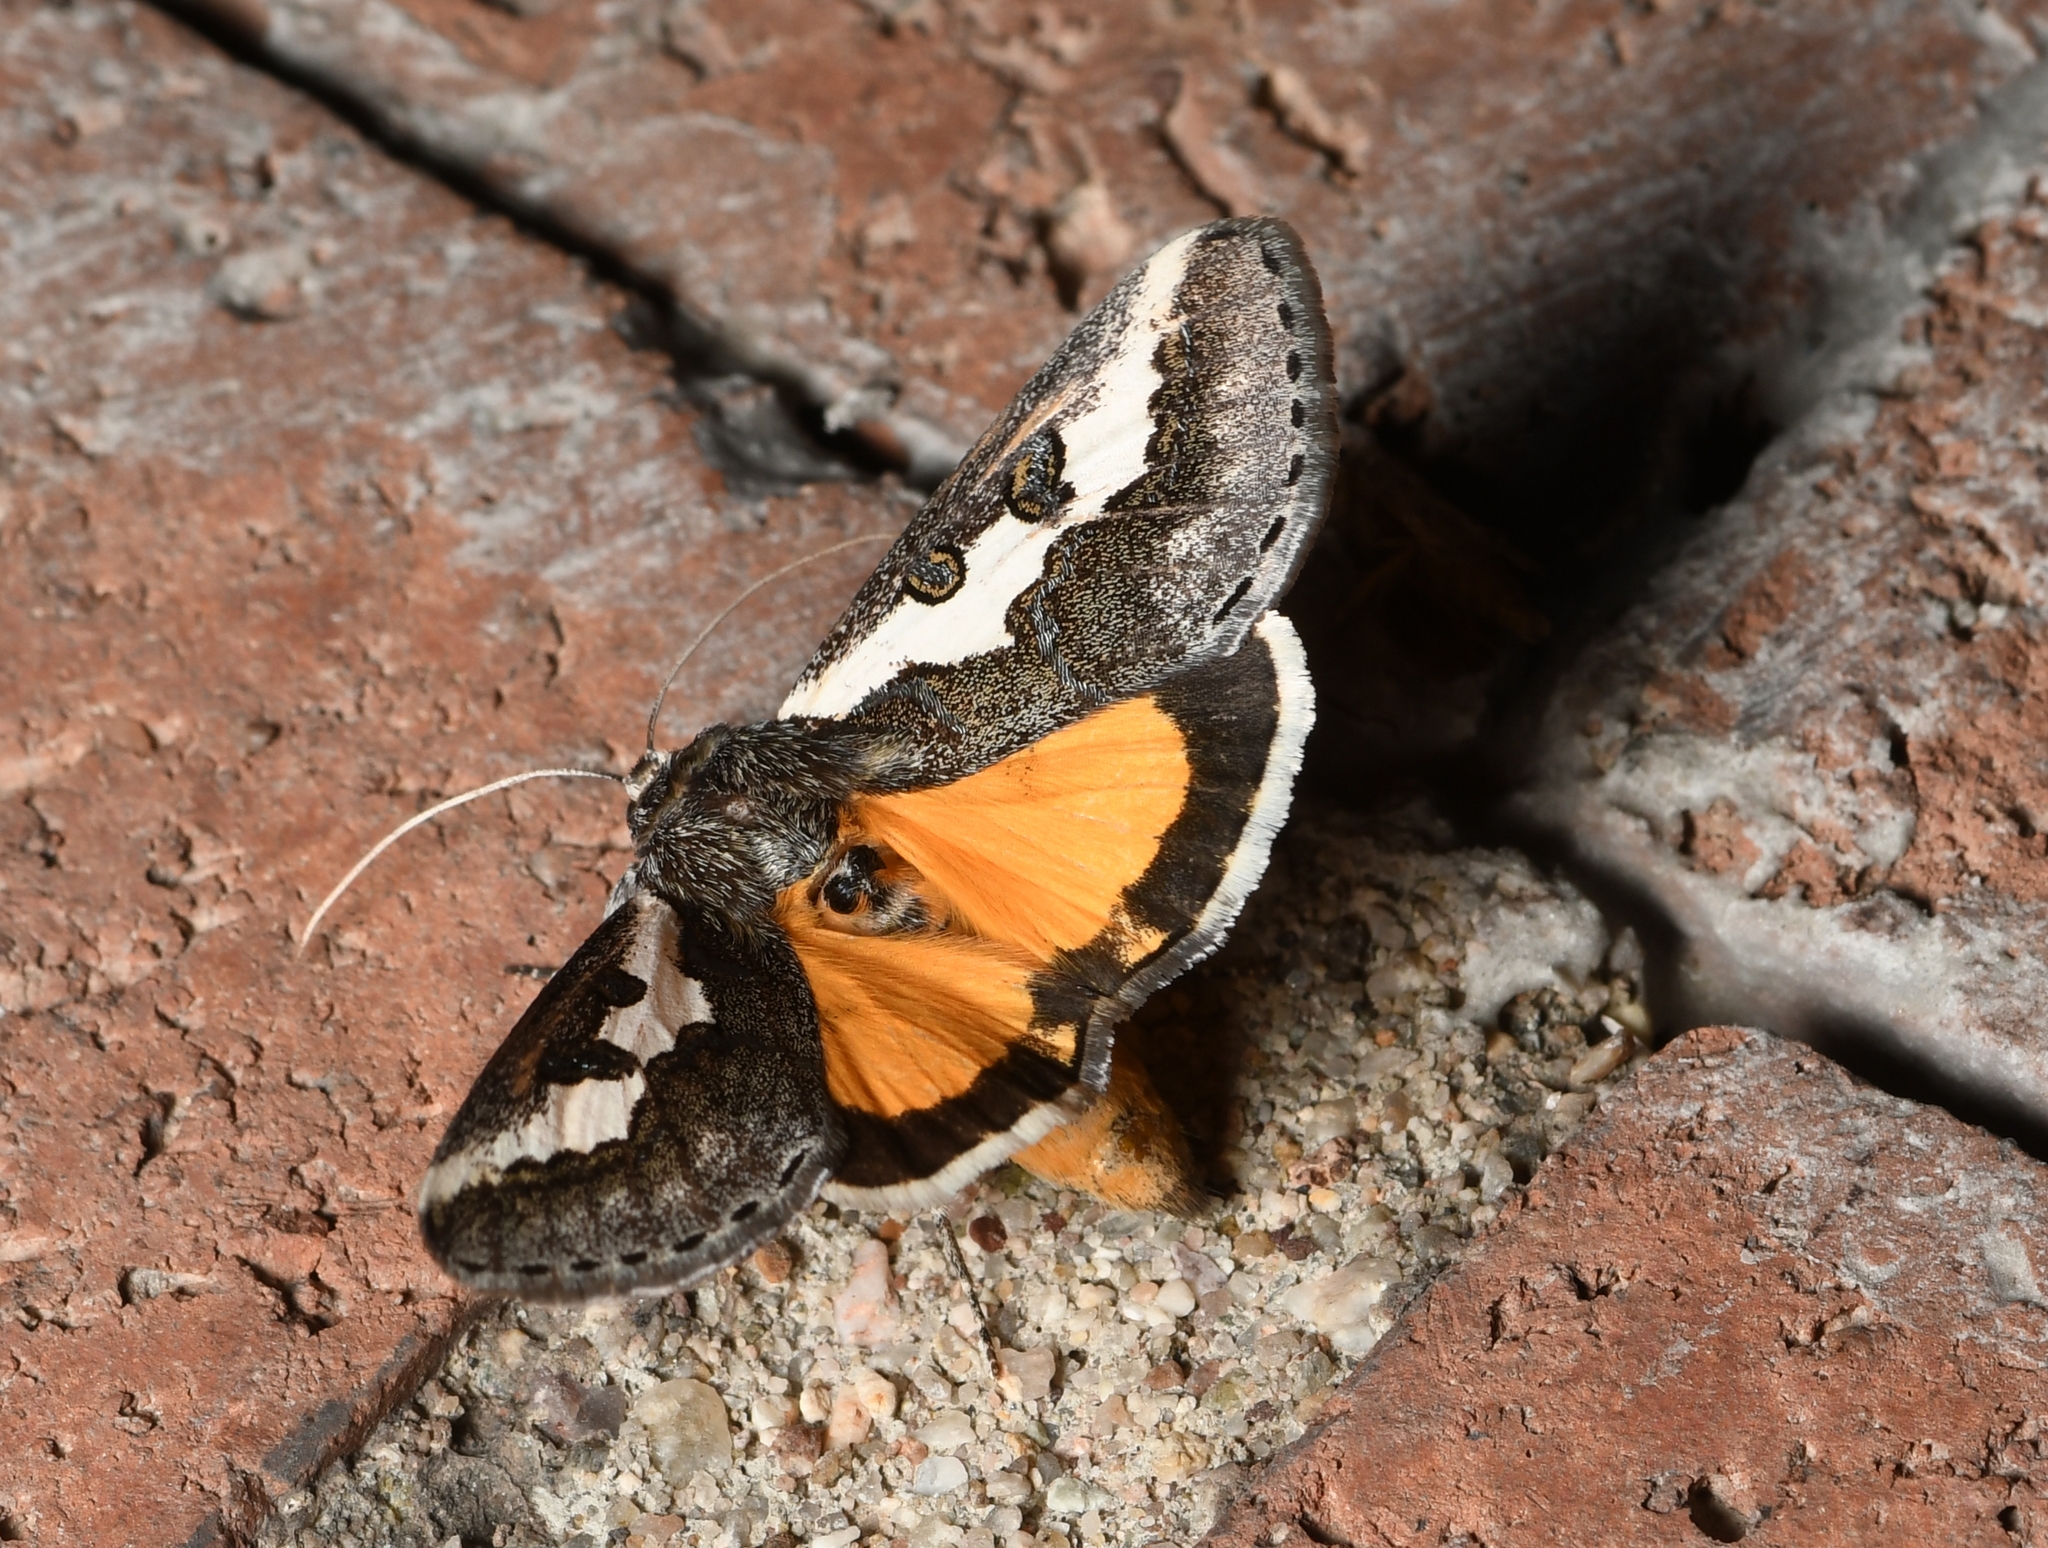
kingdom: Animalia
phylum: Arthropoda
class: Insecta
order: Lepidoptera
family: Noctuidae
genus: Euscirrhopterus
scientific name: Euscirrhopterus gloveri
